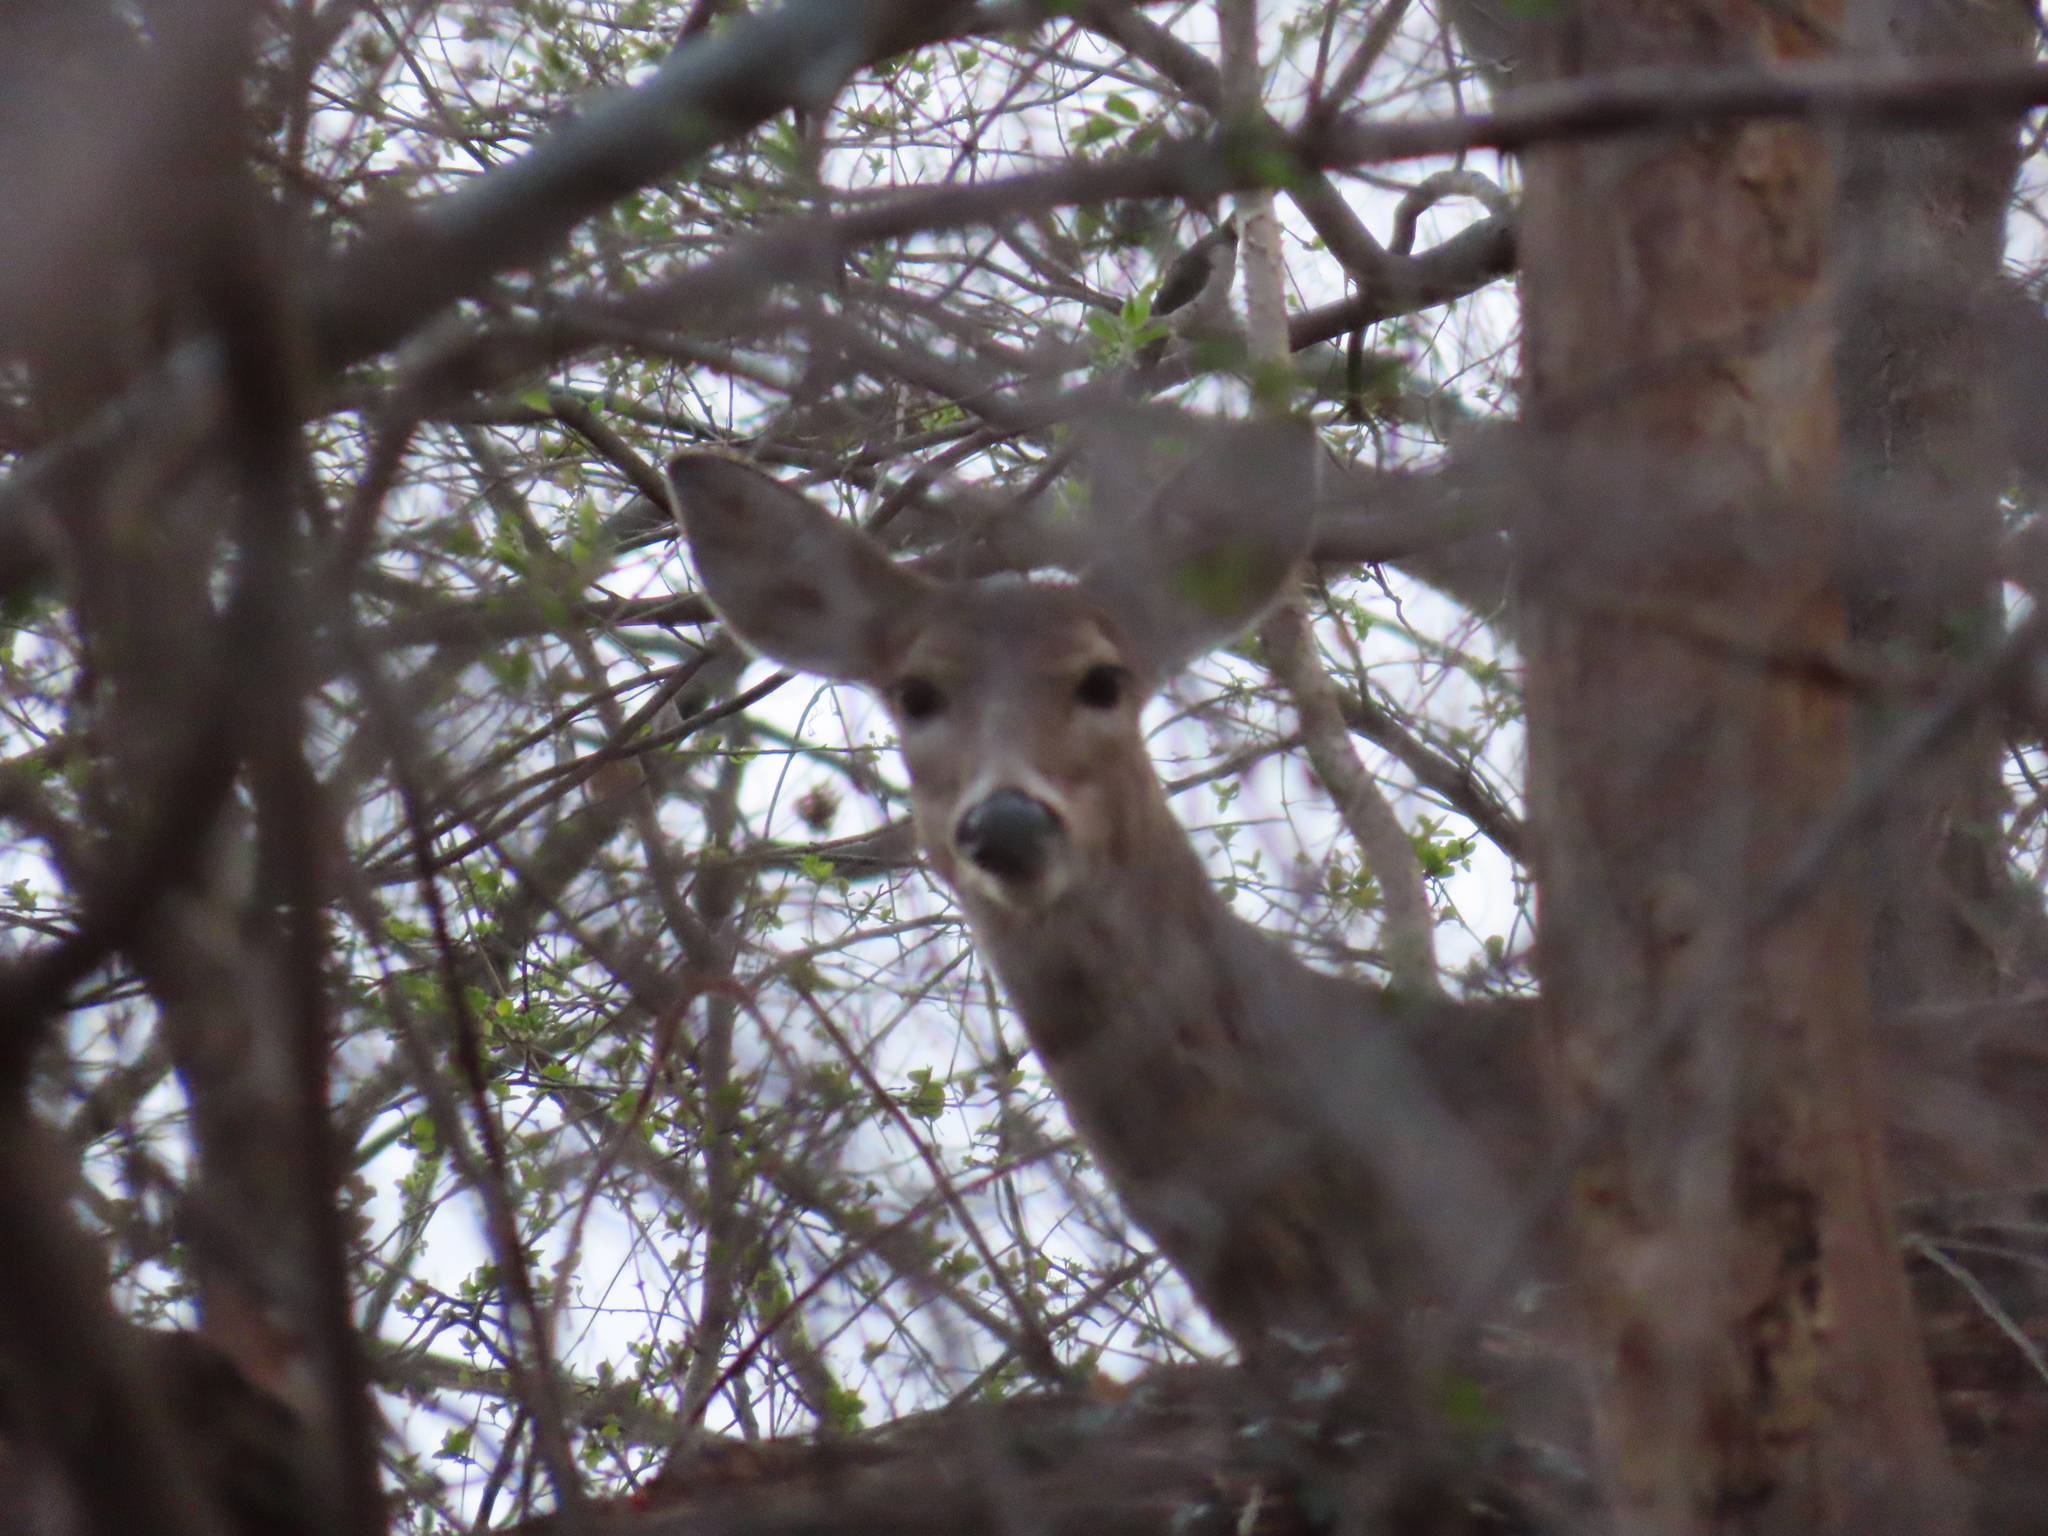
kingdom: Animalia
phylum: Chordata
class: Mammalia
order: Artiodactyla
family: Cervidae
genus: Odocoileus
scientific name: Odocoileus virginianus
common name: White-tailed deer
